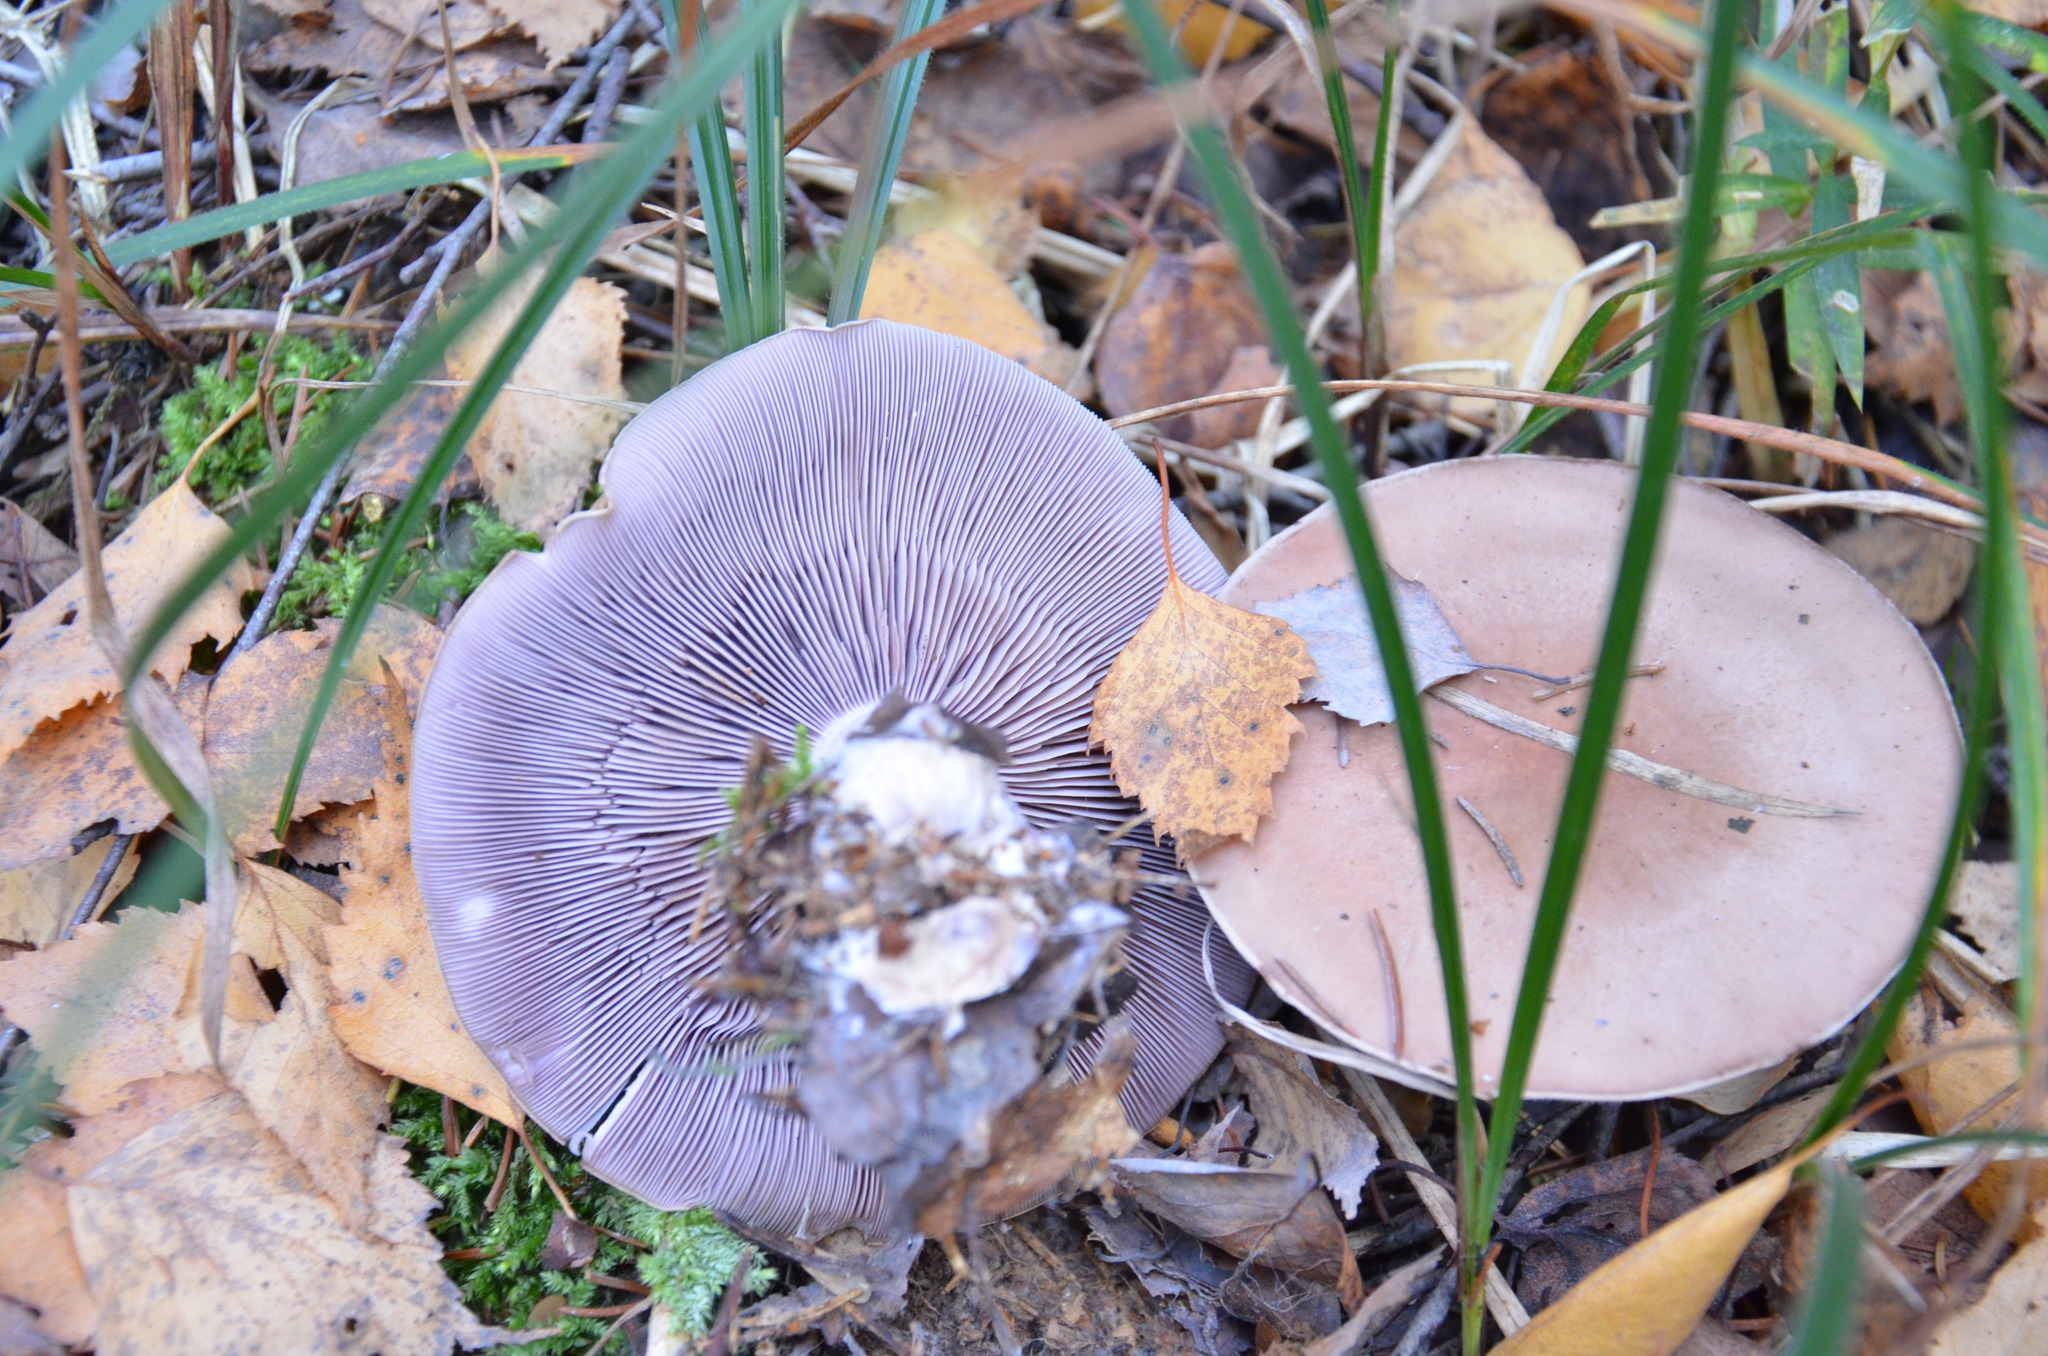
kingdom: Fungi
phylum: Basidiomycota
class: Agaricomycetes
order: Agaricales
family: Tricholomataceae
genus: Collybia
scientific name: Collybia
